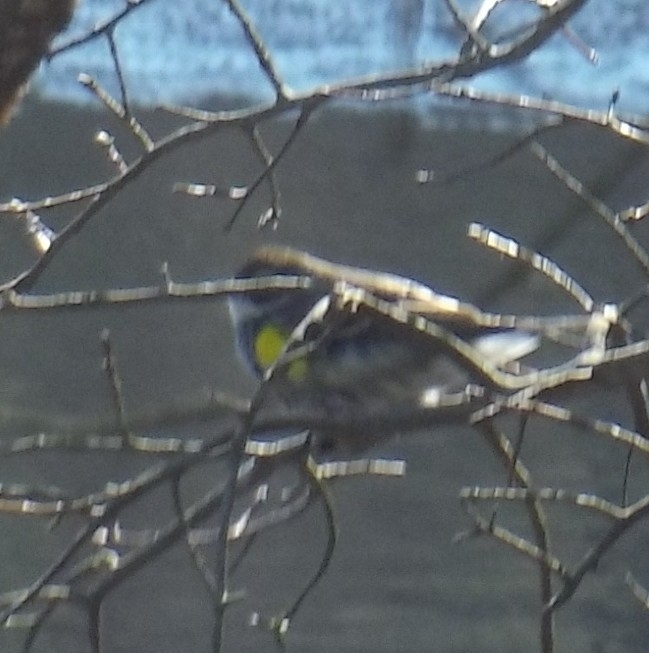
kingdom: Animalia
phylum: Chordata
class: Aves
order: Passeriformes
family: Parulidae
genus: Setophaga
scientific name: Setophaga coronata
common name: Myrtle warbler
